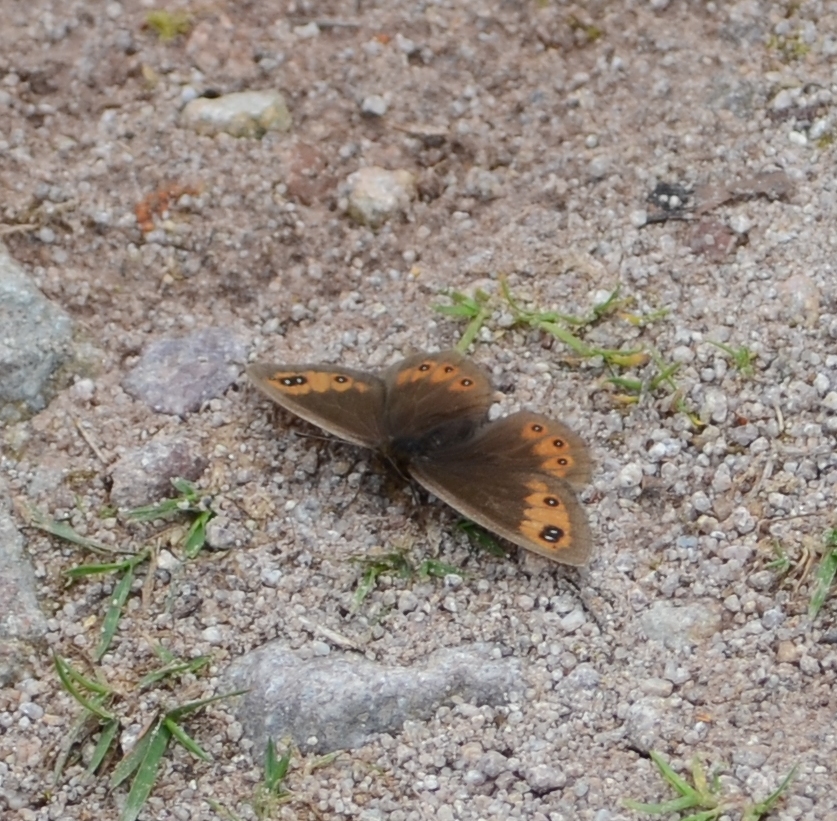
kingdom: Animalia
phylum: Arthropoda
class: Insecta
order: Lepidoptera
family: Nymphalidae
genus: Erebia
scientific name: Erebia meolans
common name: Piedmont ringlet
